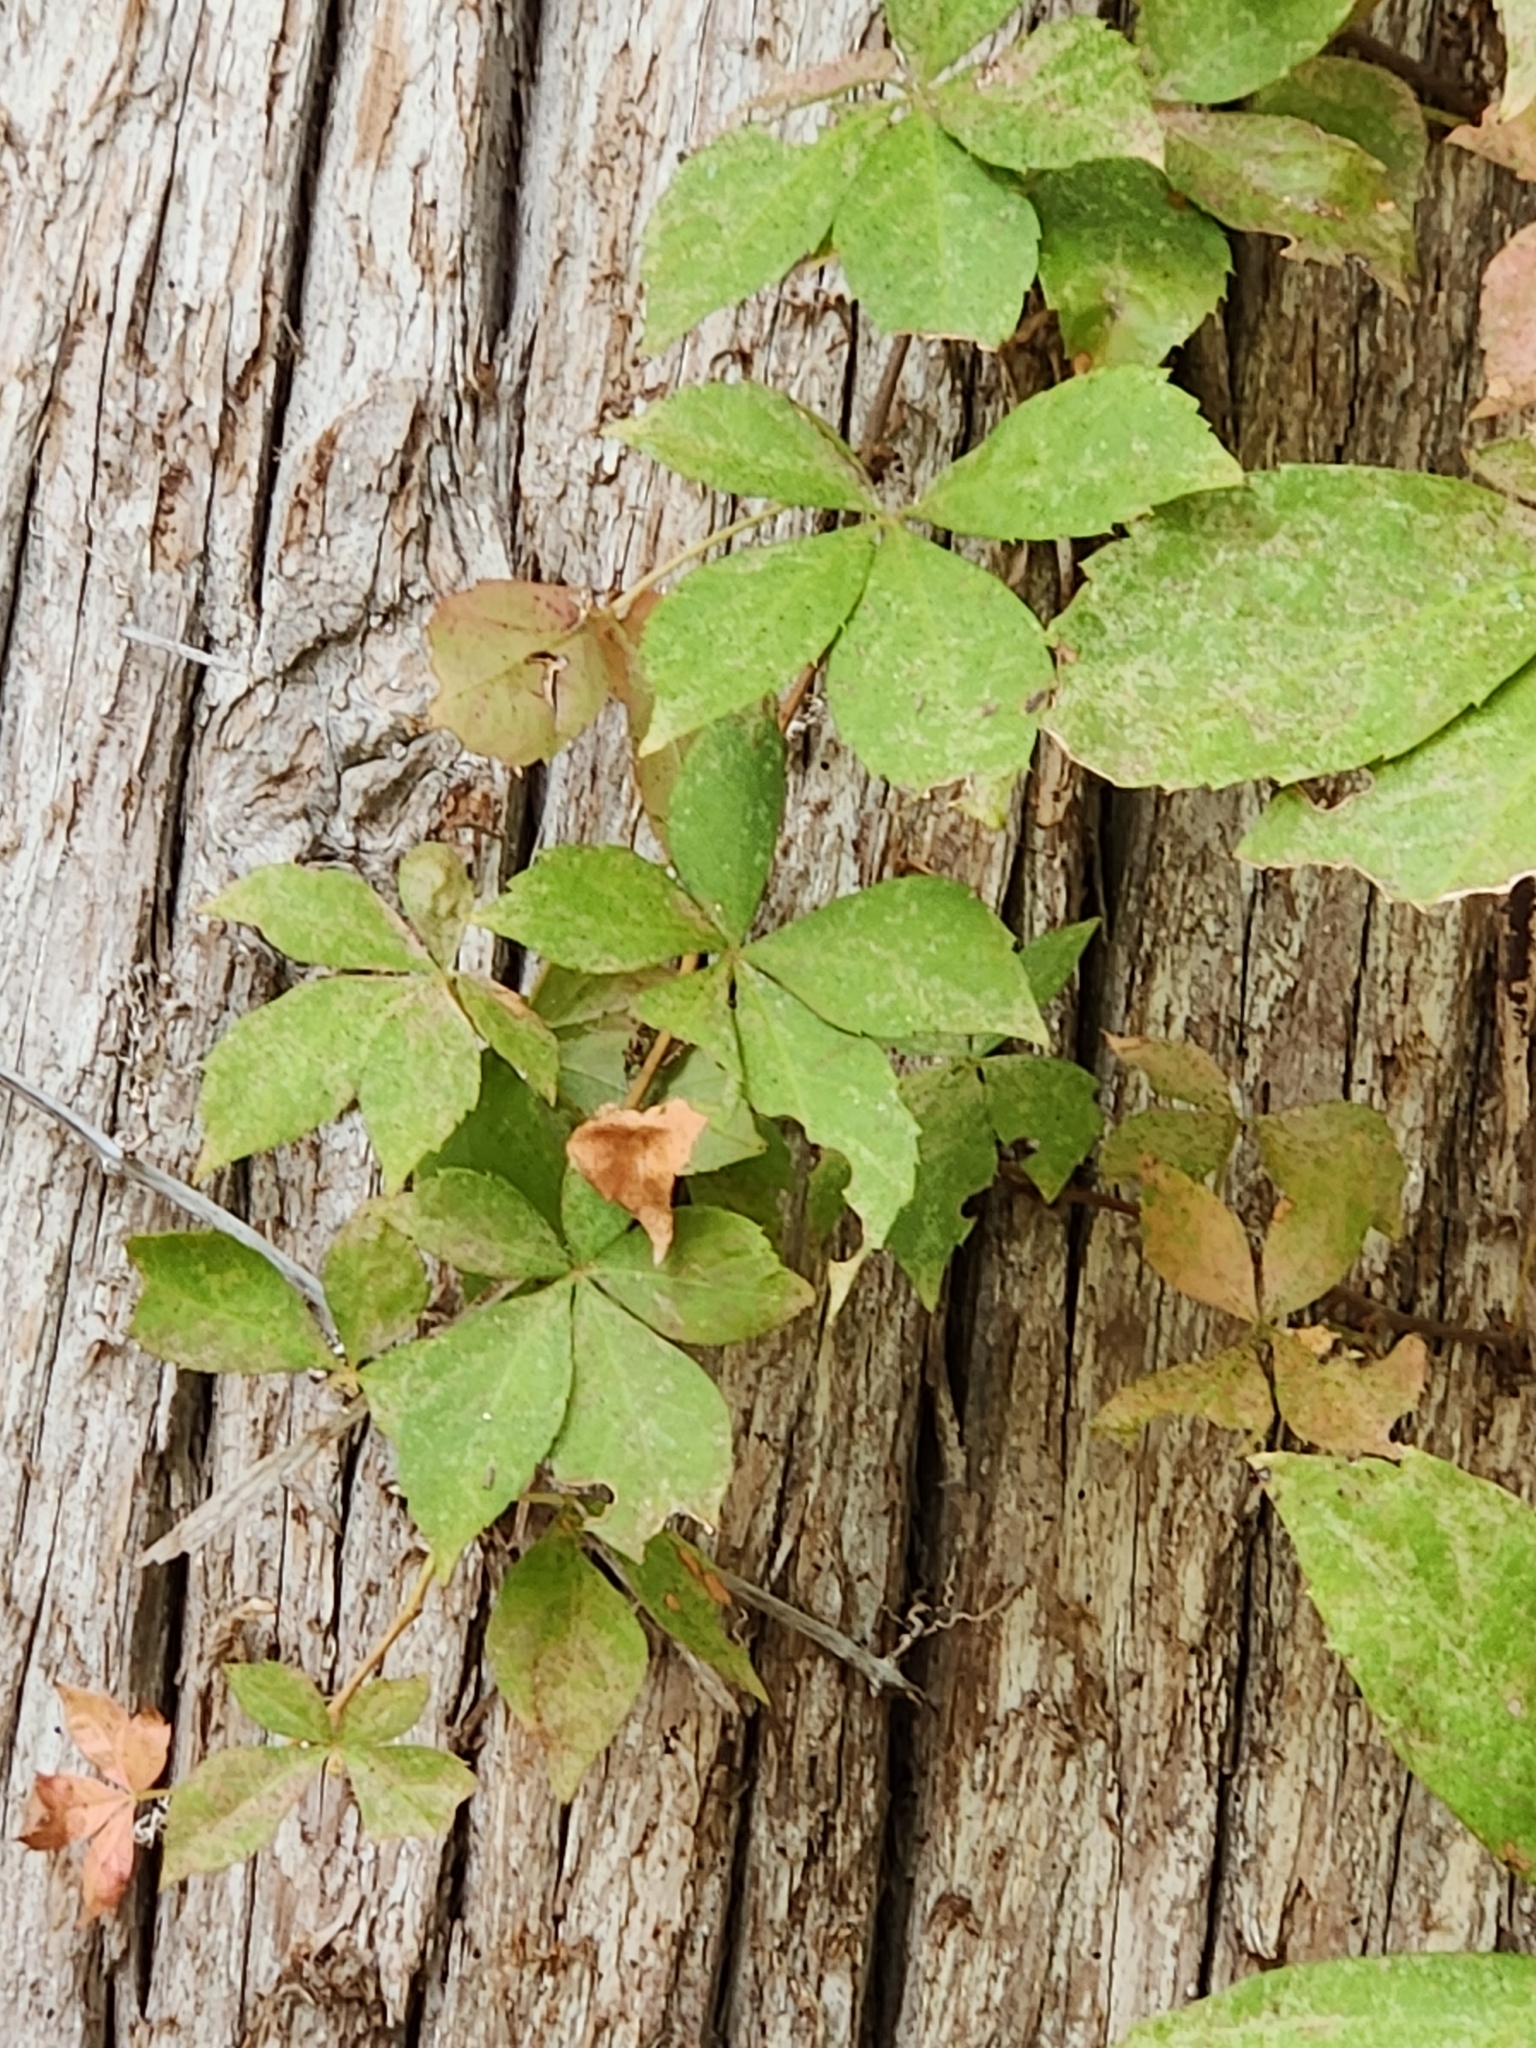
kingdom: Plantae
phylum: Tracheophyta
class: Magnoliopsida
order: Vitales
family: Vitaceae
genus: Parthenocissus
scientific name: Parthenocissus quinquefolia
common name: Virginia-creeper
